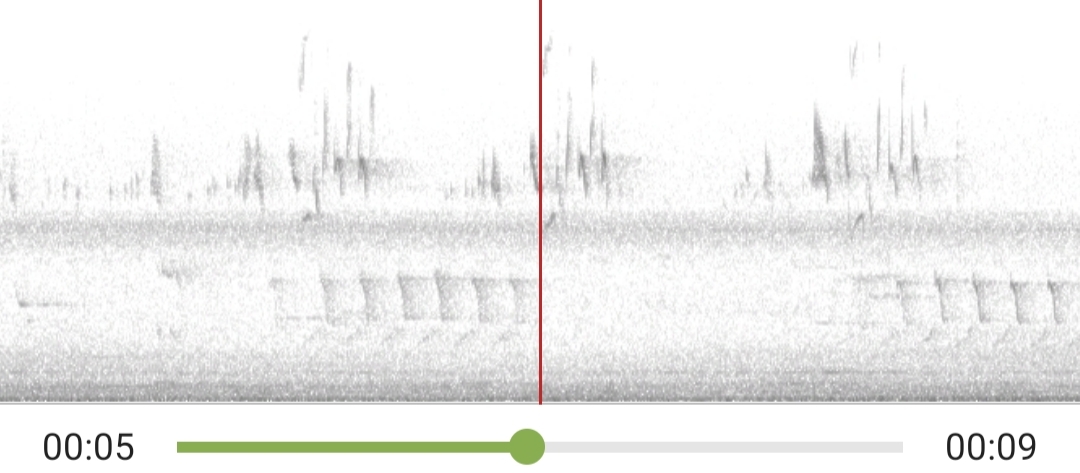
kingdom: Animalia
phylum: Chordata
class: Aves
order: Passeriformes
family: Tyrannidae
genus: Tyrannus
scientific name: Tyrannus tyrannus
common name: Eastern kingbird
